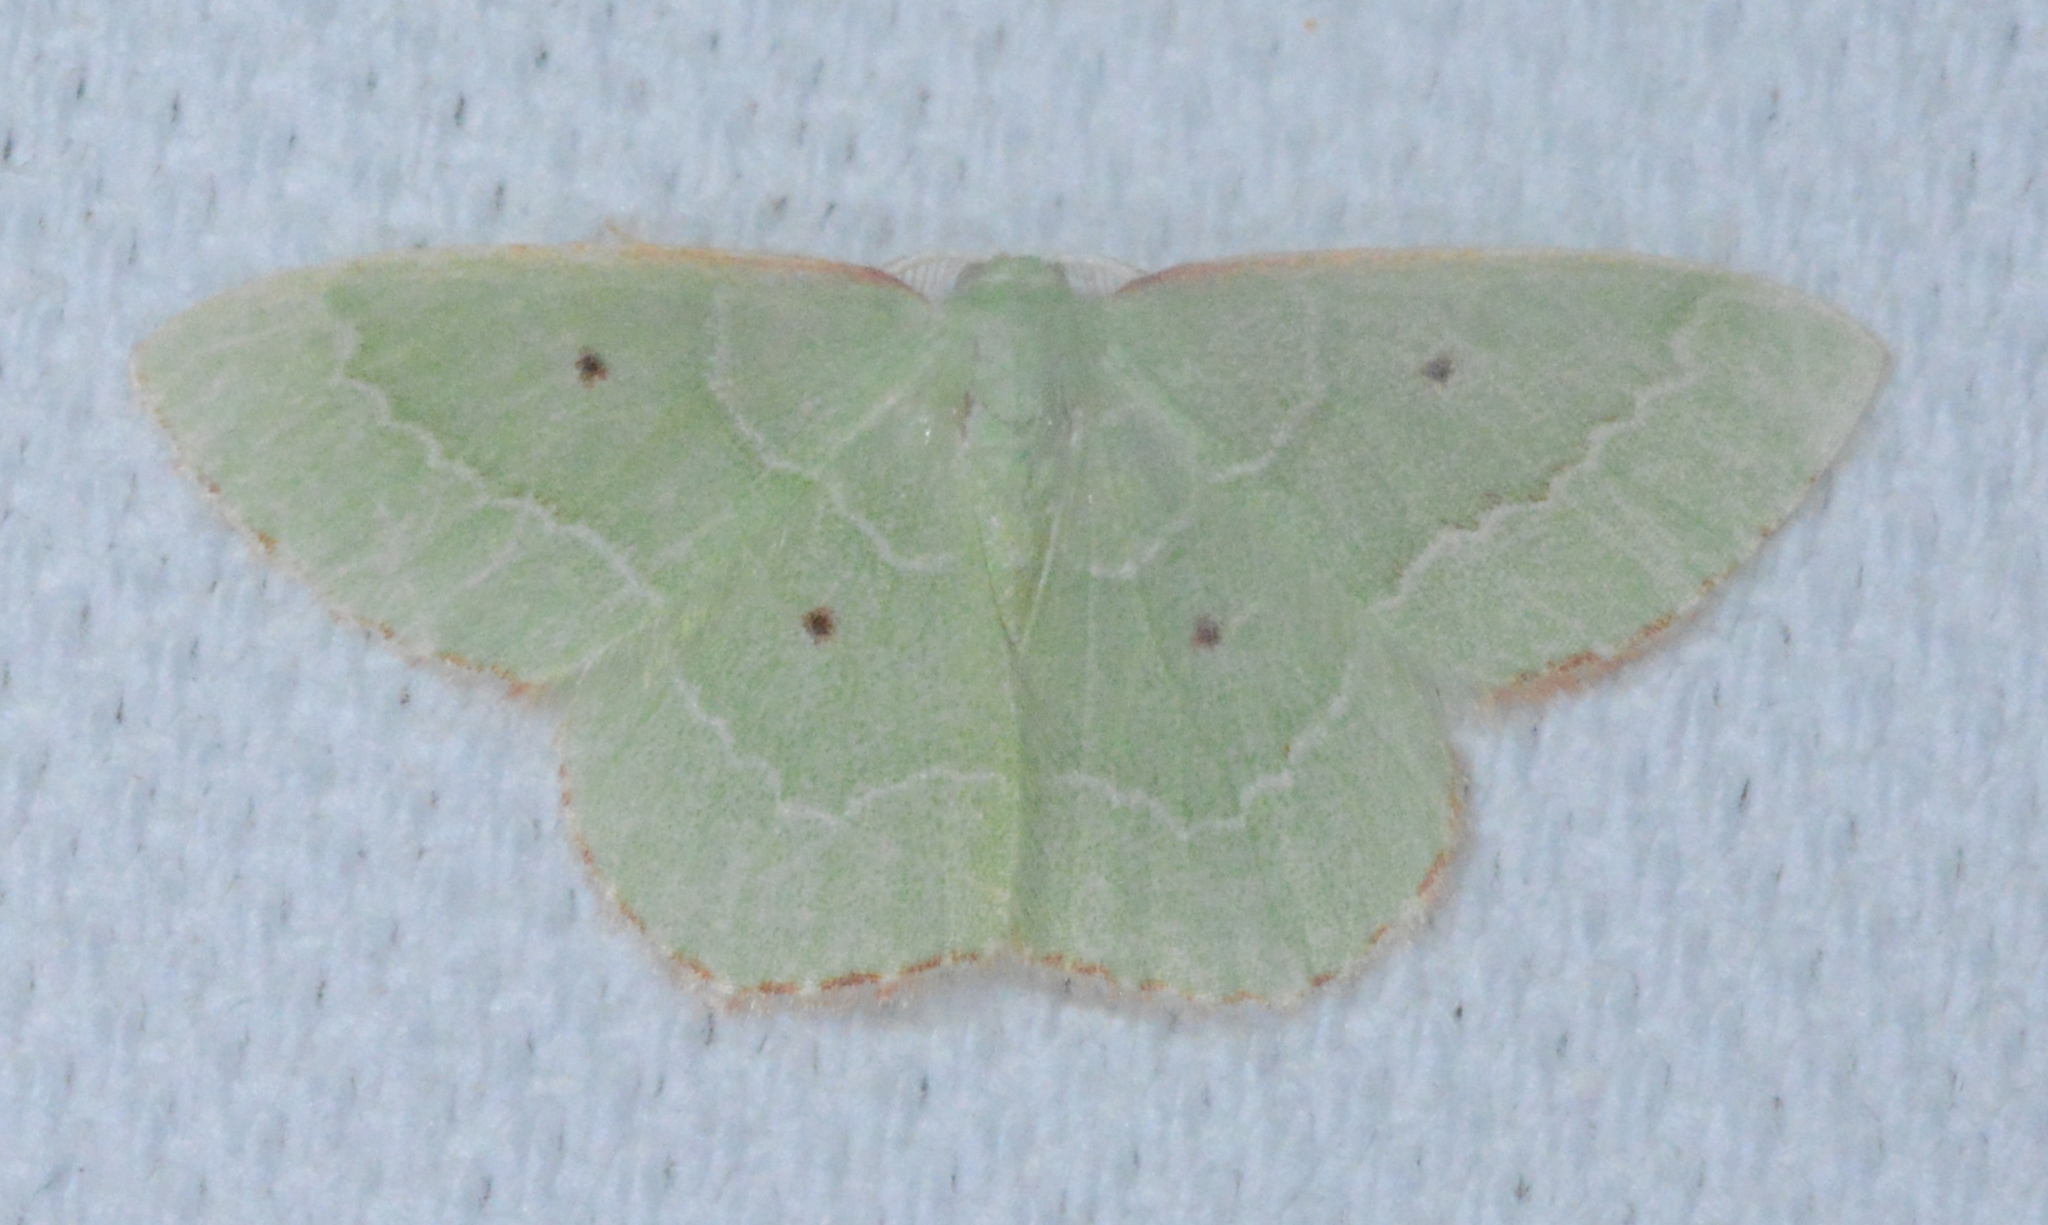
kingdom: Animalia
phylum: Arthropoda
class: Insecta
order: Lepidoptera
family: Geometridae
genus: Nemoria
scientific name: Nemoria elfa
